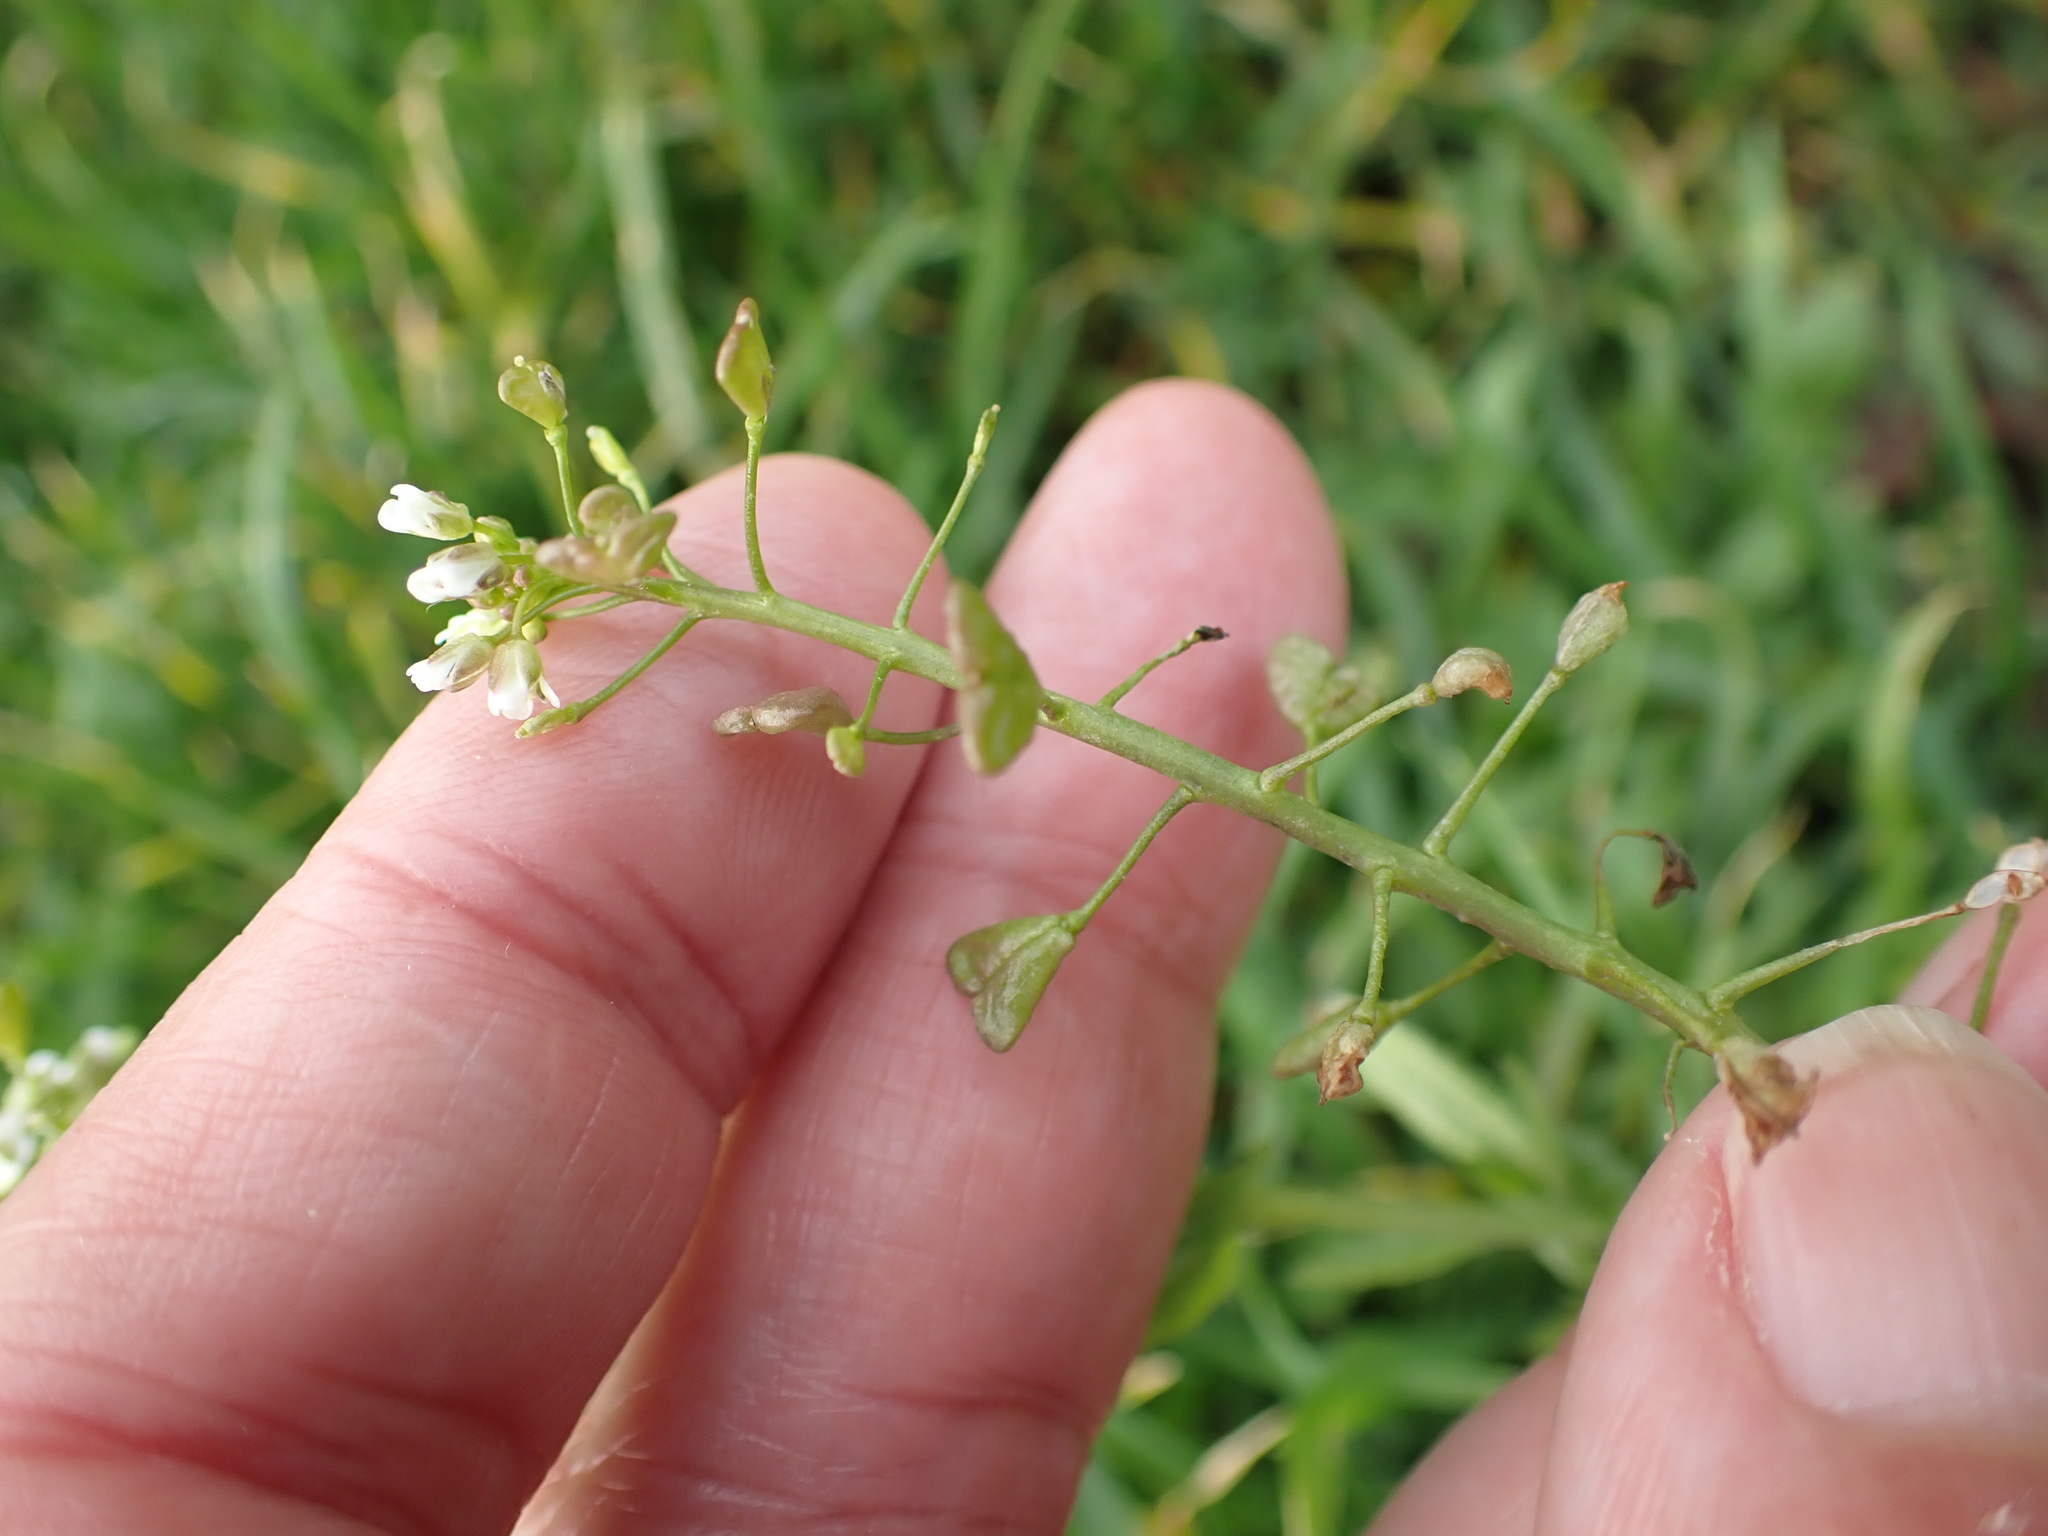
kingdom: Plantae
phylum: Tracheophyta
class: Magnoliopsida
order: Brassicales
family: Brassicaceae
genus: Capsella
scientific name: Capsella bursa-pastoris
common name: Shepherd's purse
